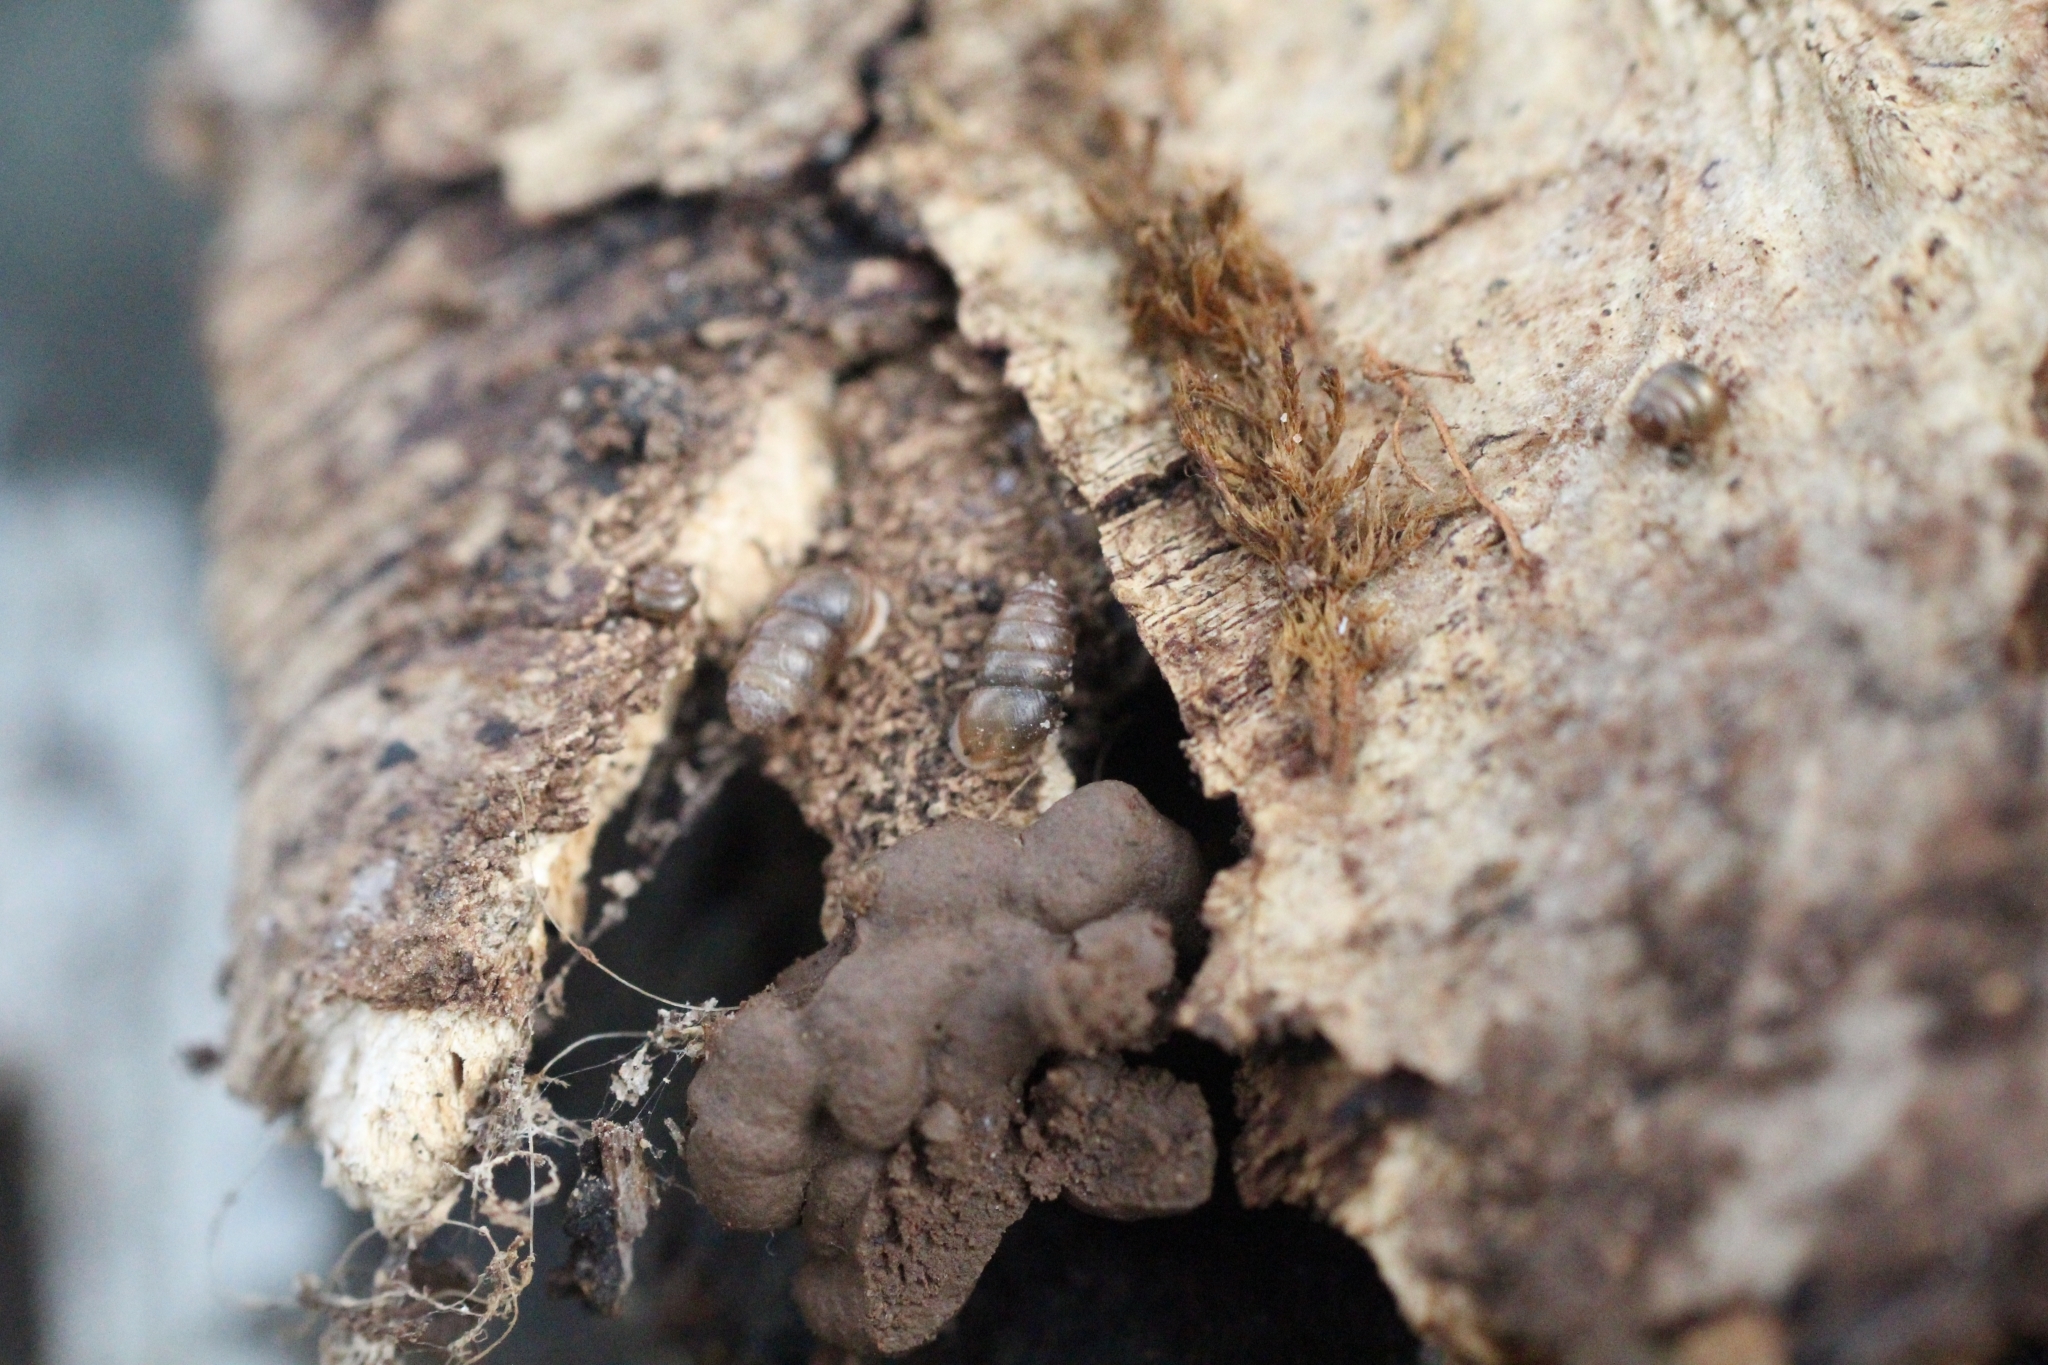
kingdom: Animalia
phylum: Mollusca
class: Gastropoda
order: Stylommatophora
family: Lauriidae
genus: Lauria
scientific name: Lauria cylindracea
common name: Common chrysalis snail
